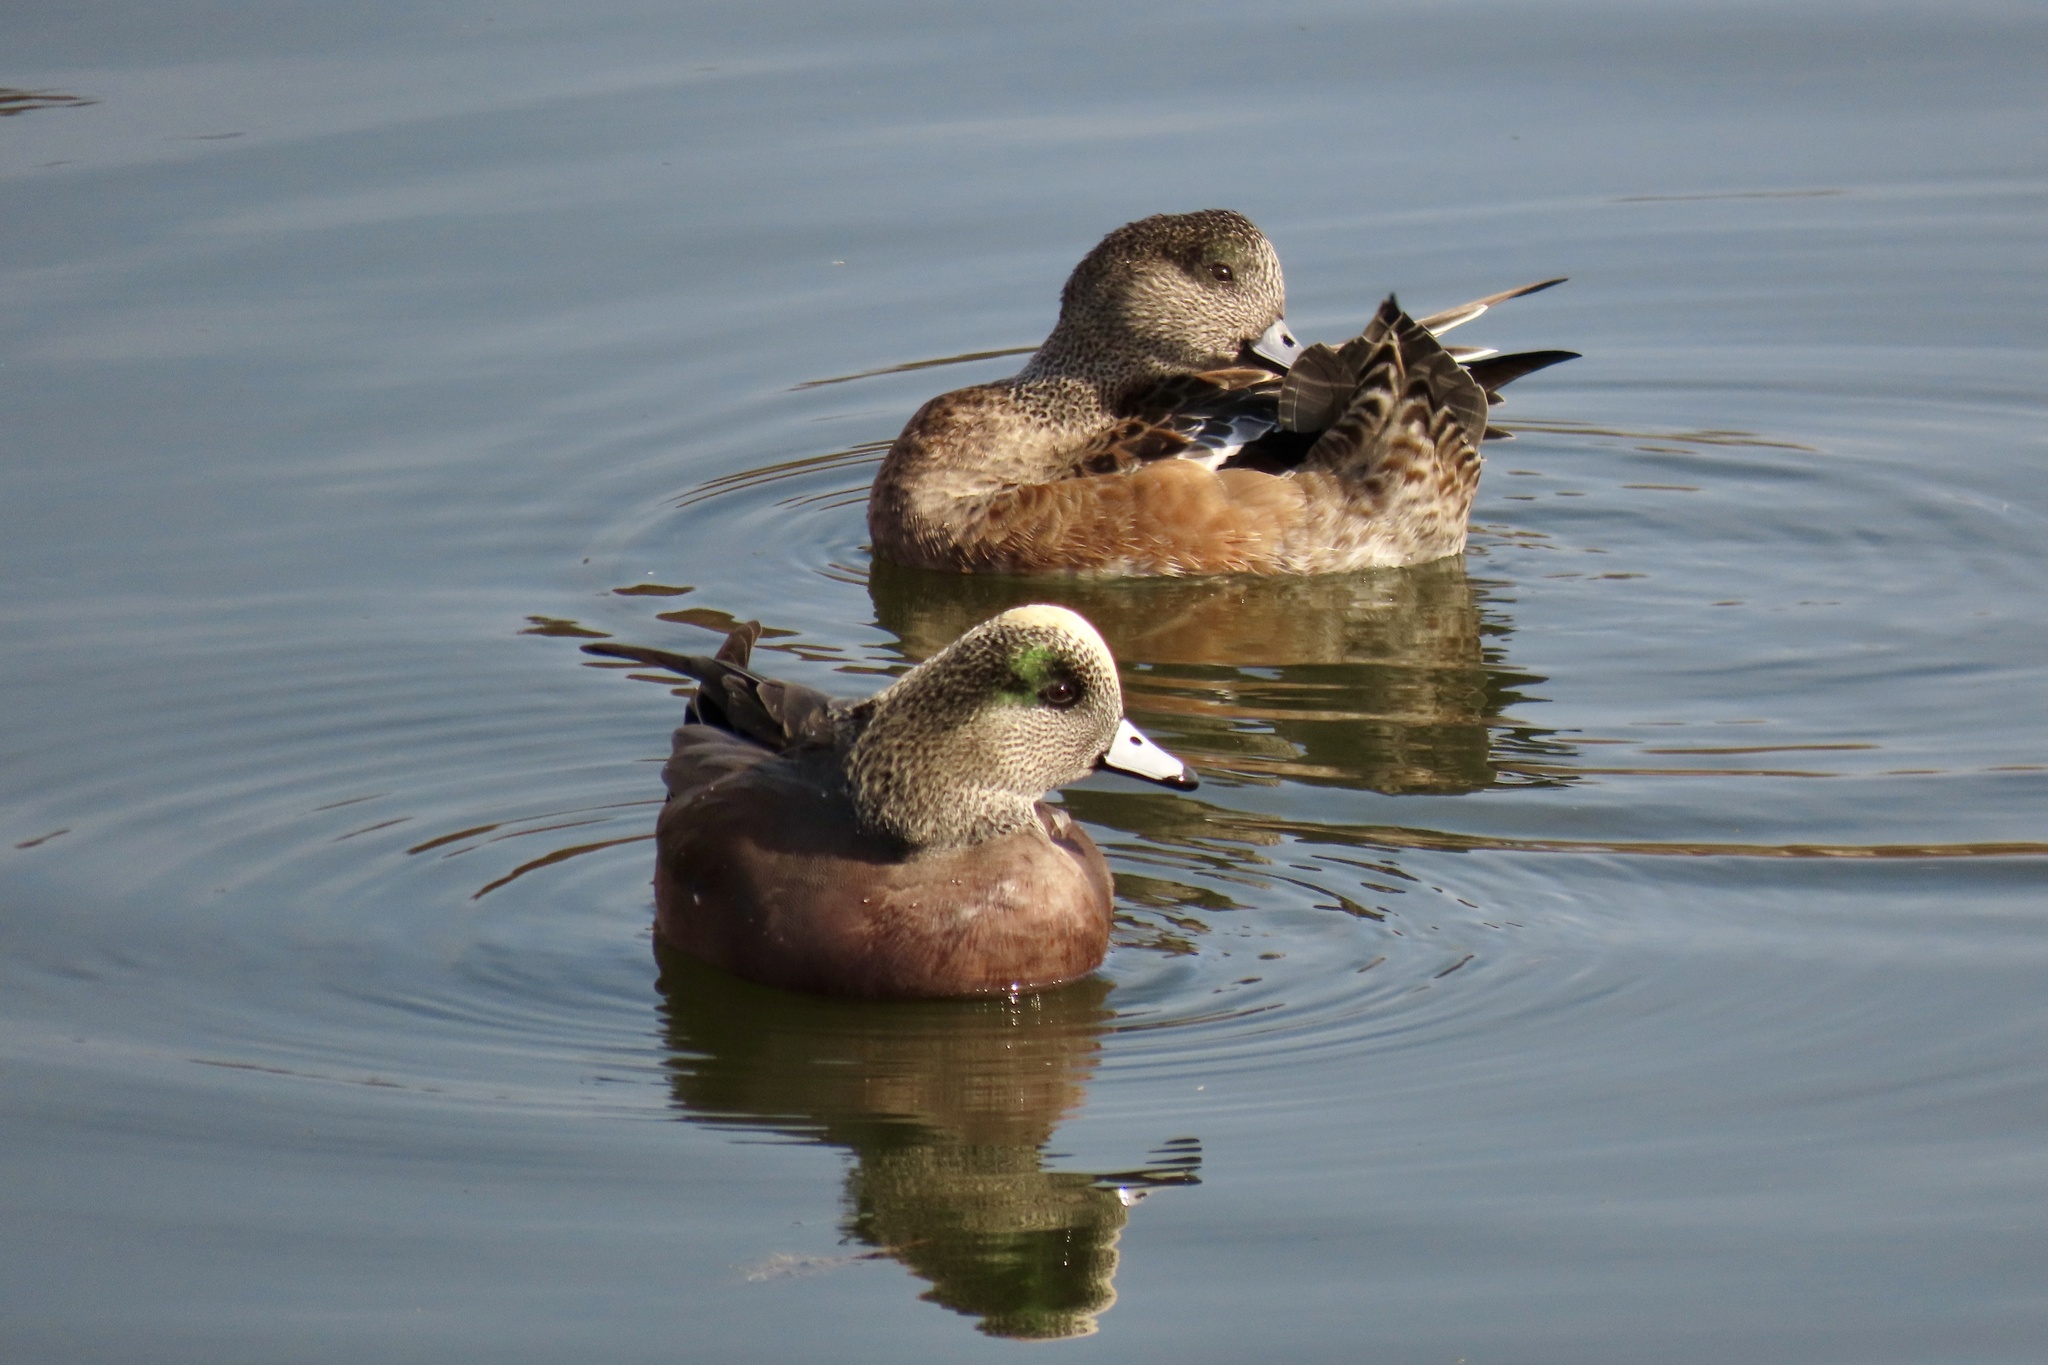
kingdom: Animalia
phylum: Chordata
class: Aves
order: Anseriformes
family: Anatidae
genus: Mareca
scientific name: Mareca americana
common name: American wigeon
